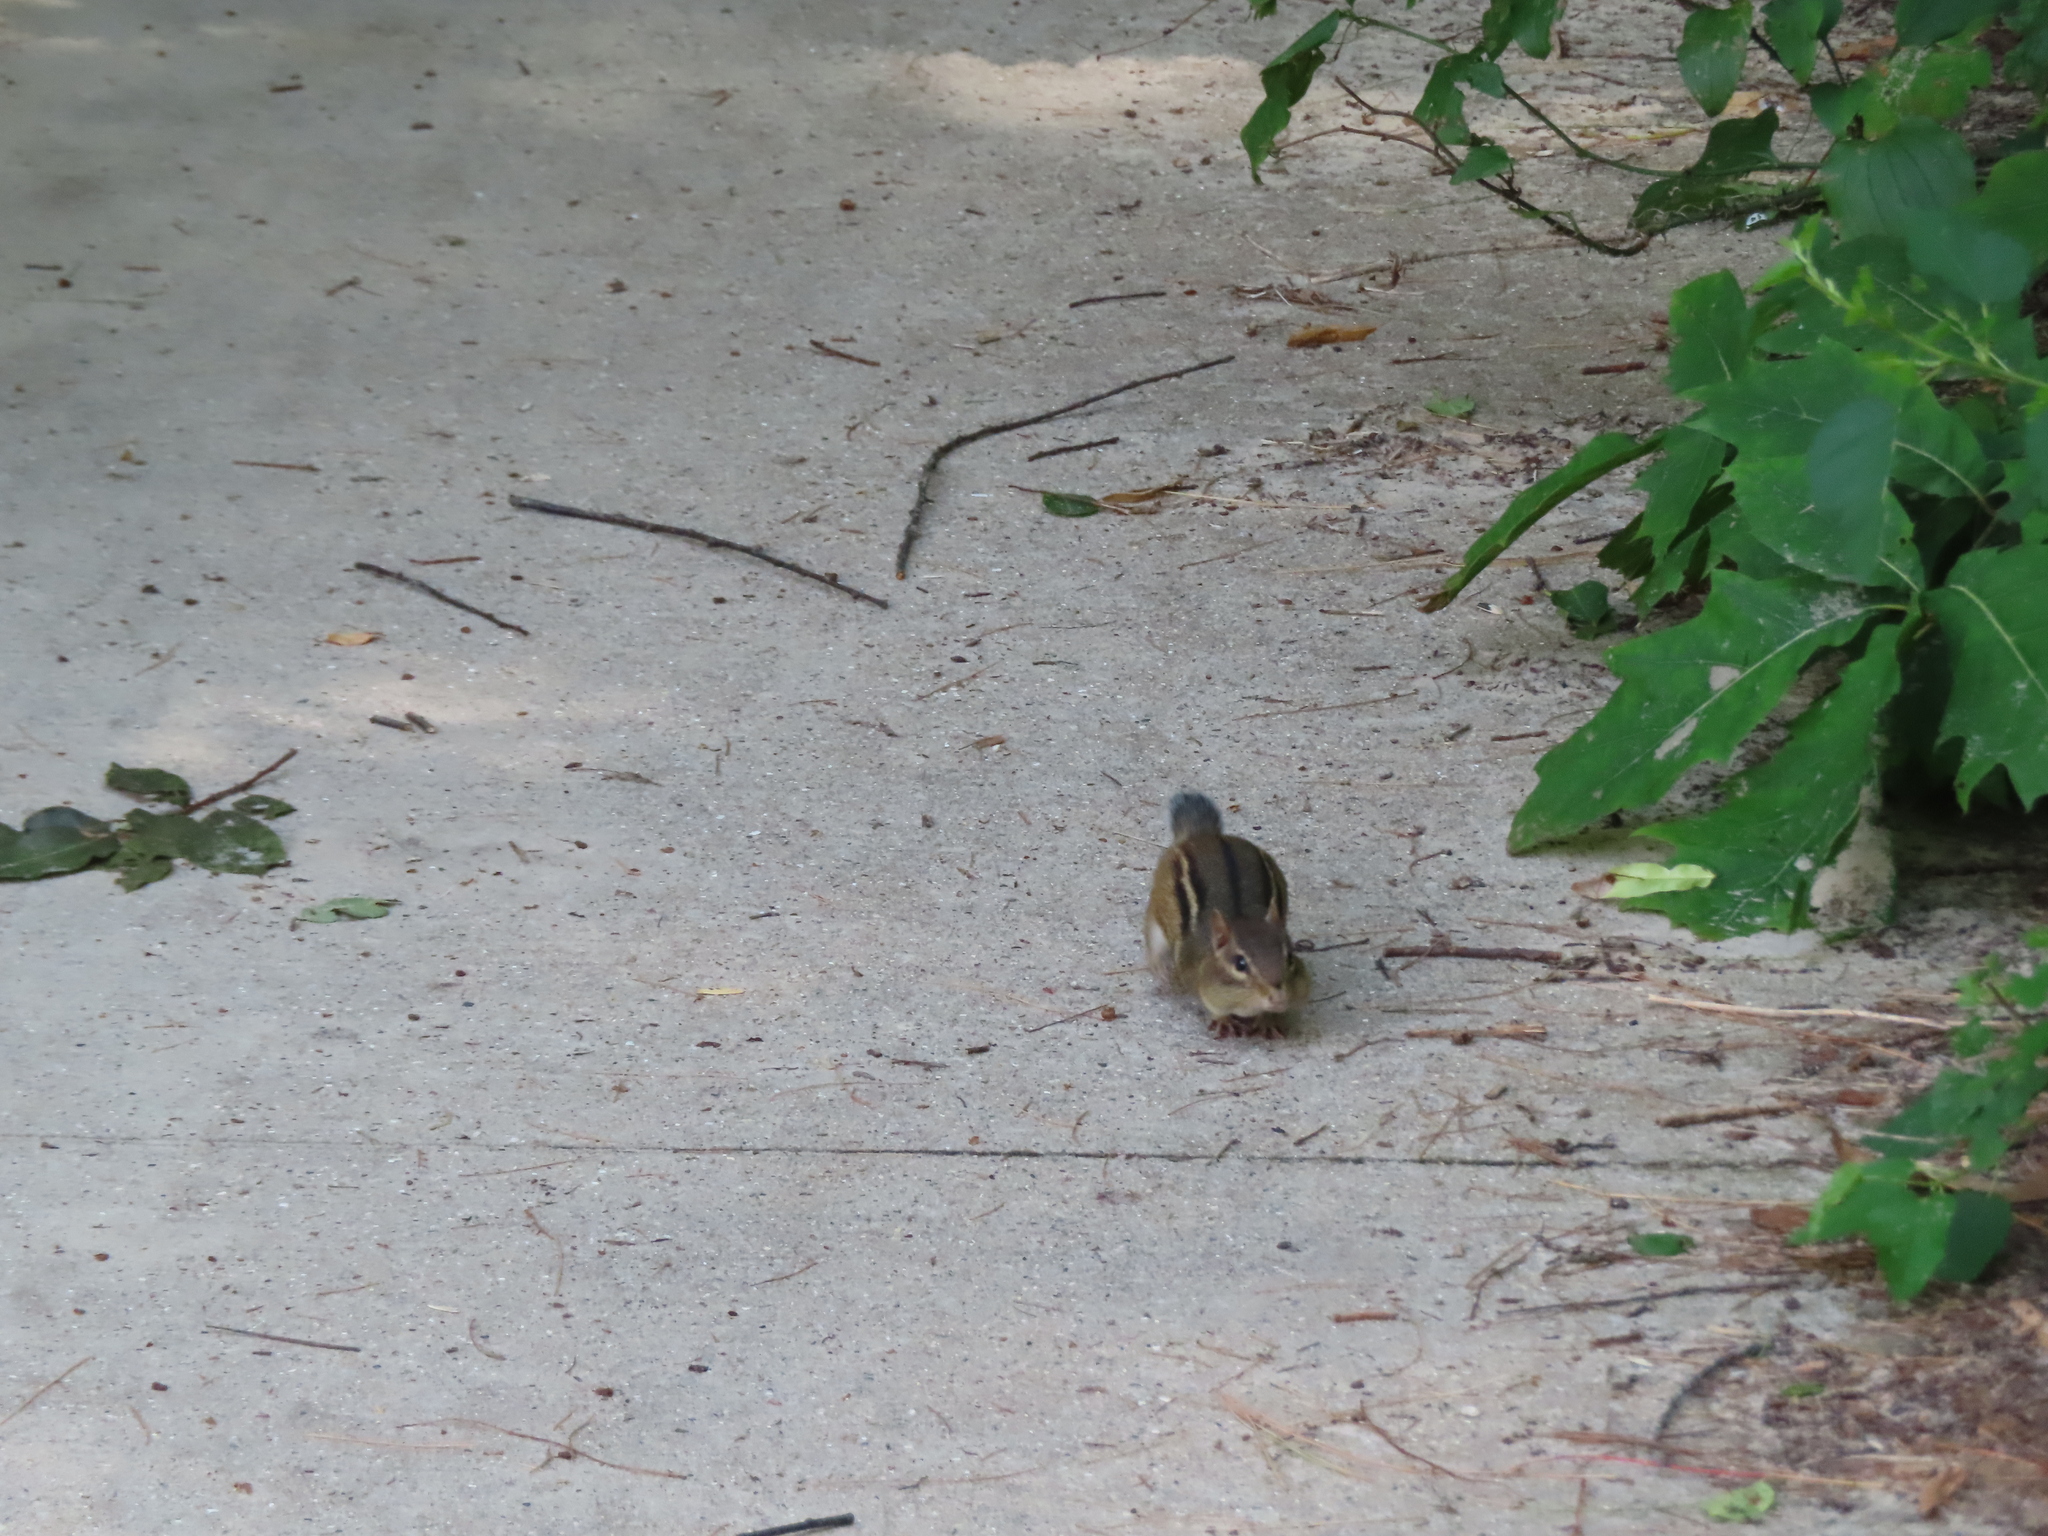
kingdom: Animalia
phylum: Chordata
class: Mammalia
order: Rodentia
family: Sciuridae
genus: Tamias
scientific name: Tamias striatus
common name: Eastern chipmunk
